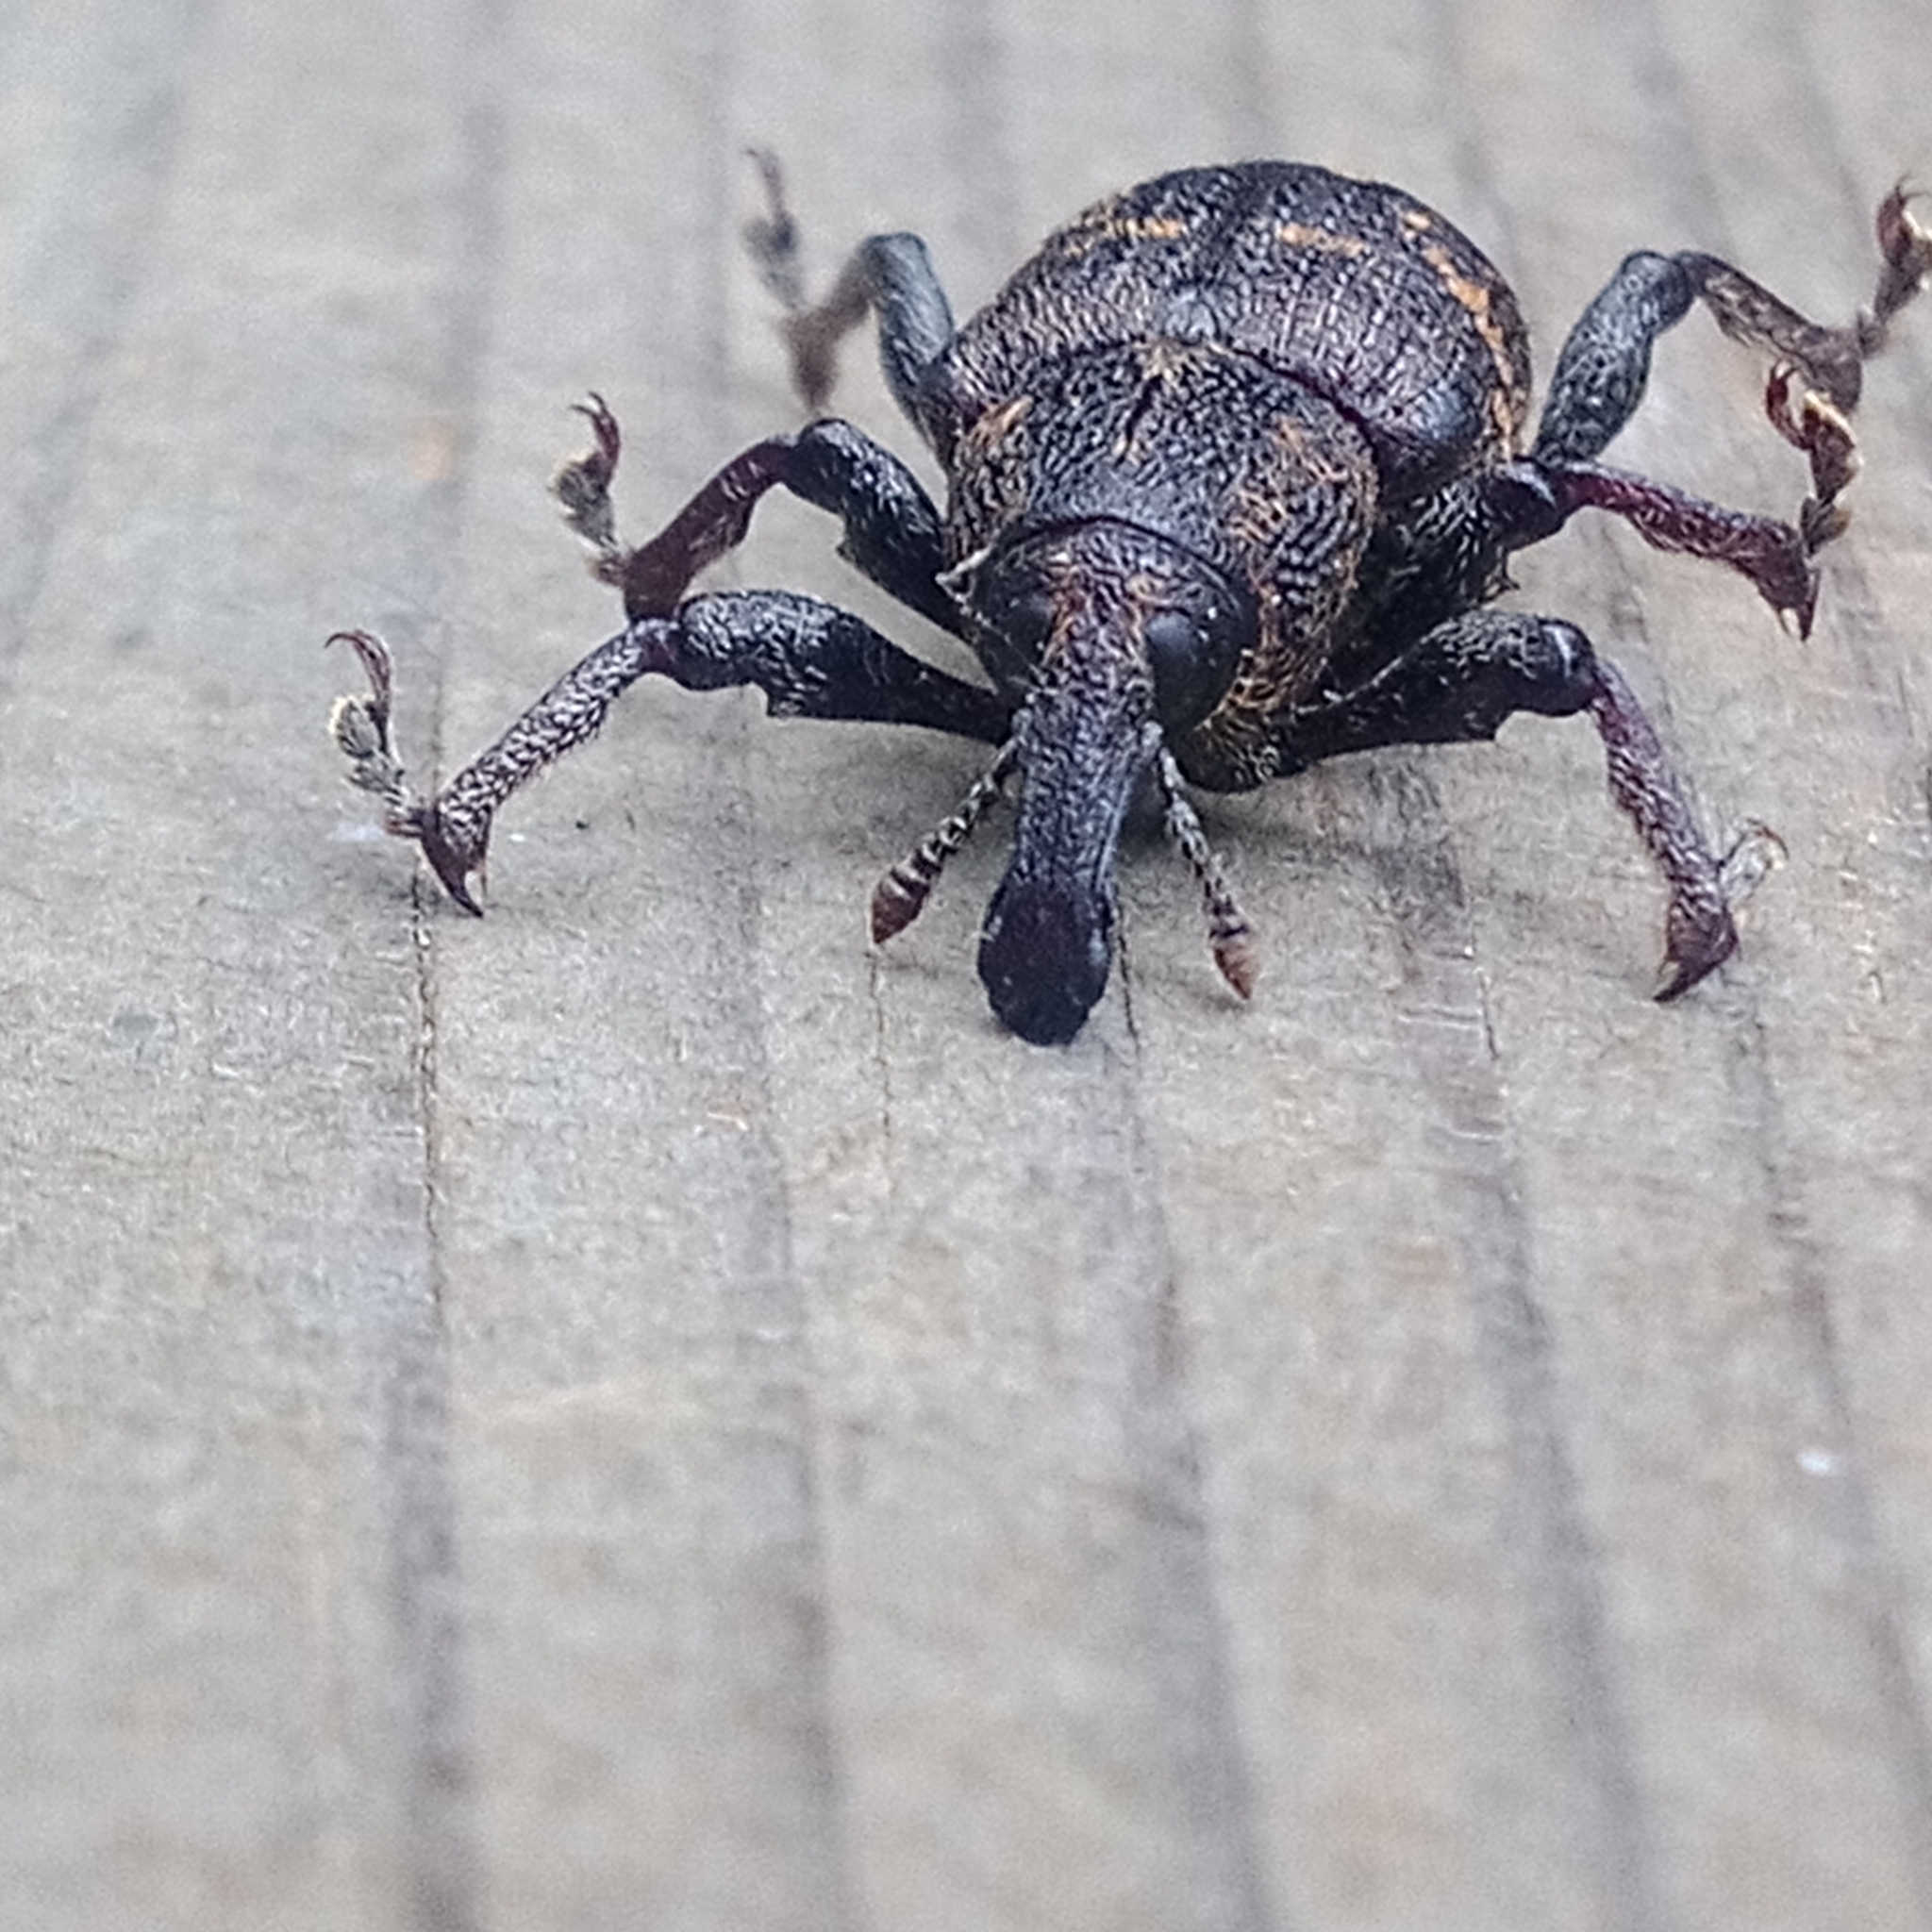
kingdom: Animalia
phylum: Arthropoda
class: Insecta
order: Coleoptera
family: Curculionidae
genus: Hylobius
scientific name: Hylobius abietis
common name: Large pine weevil
